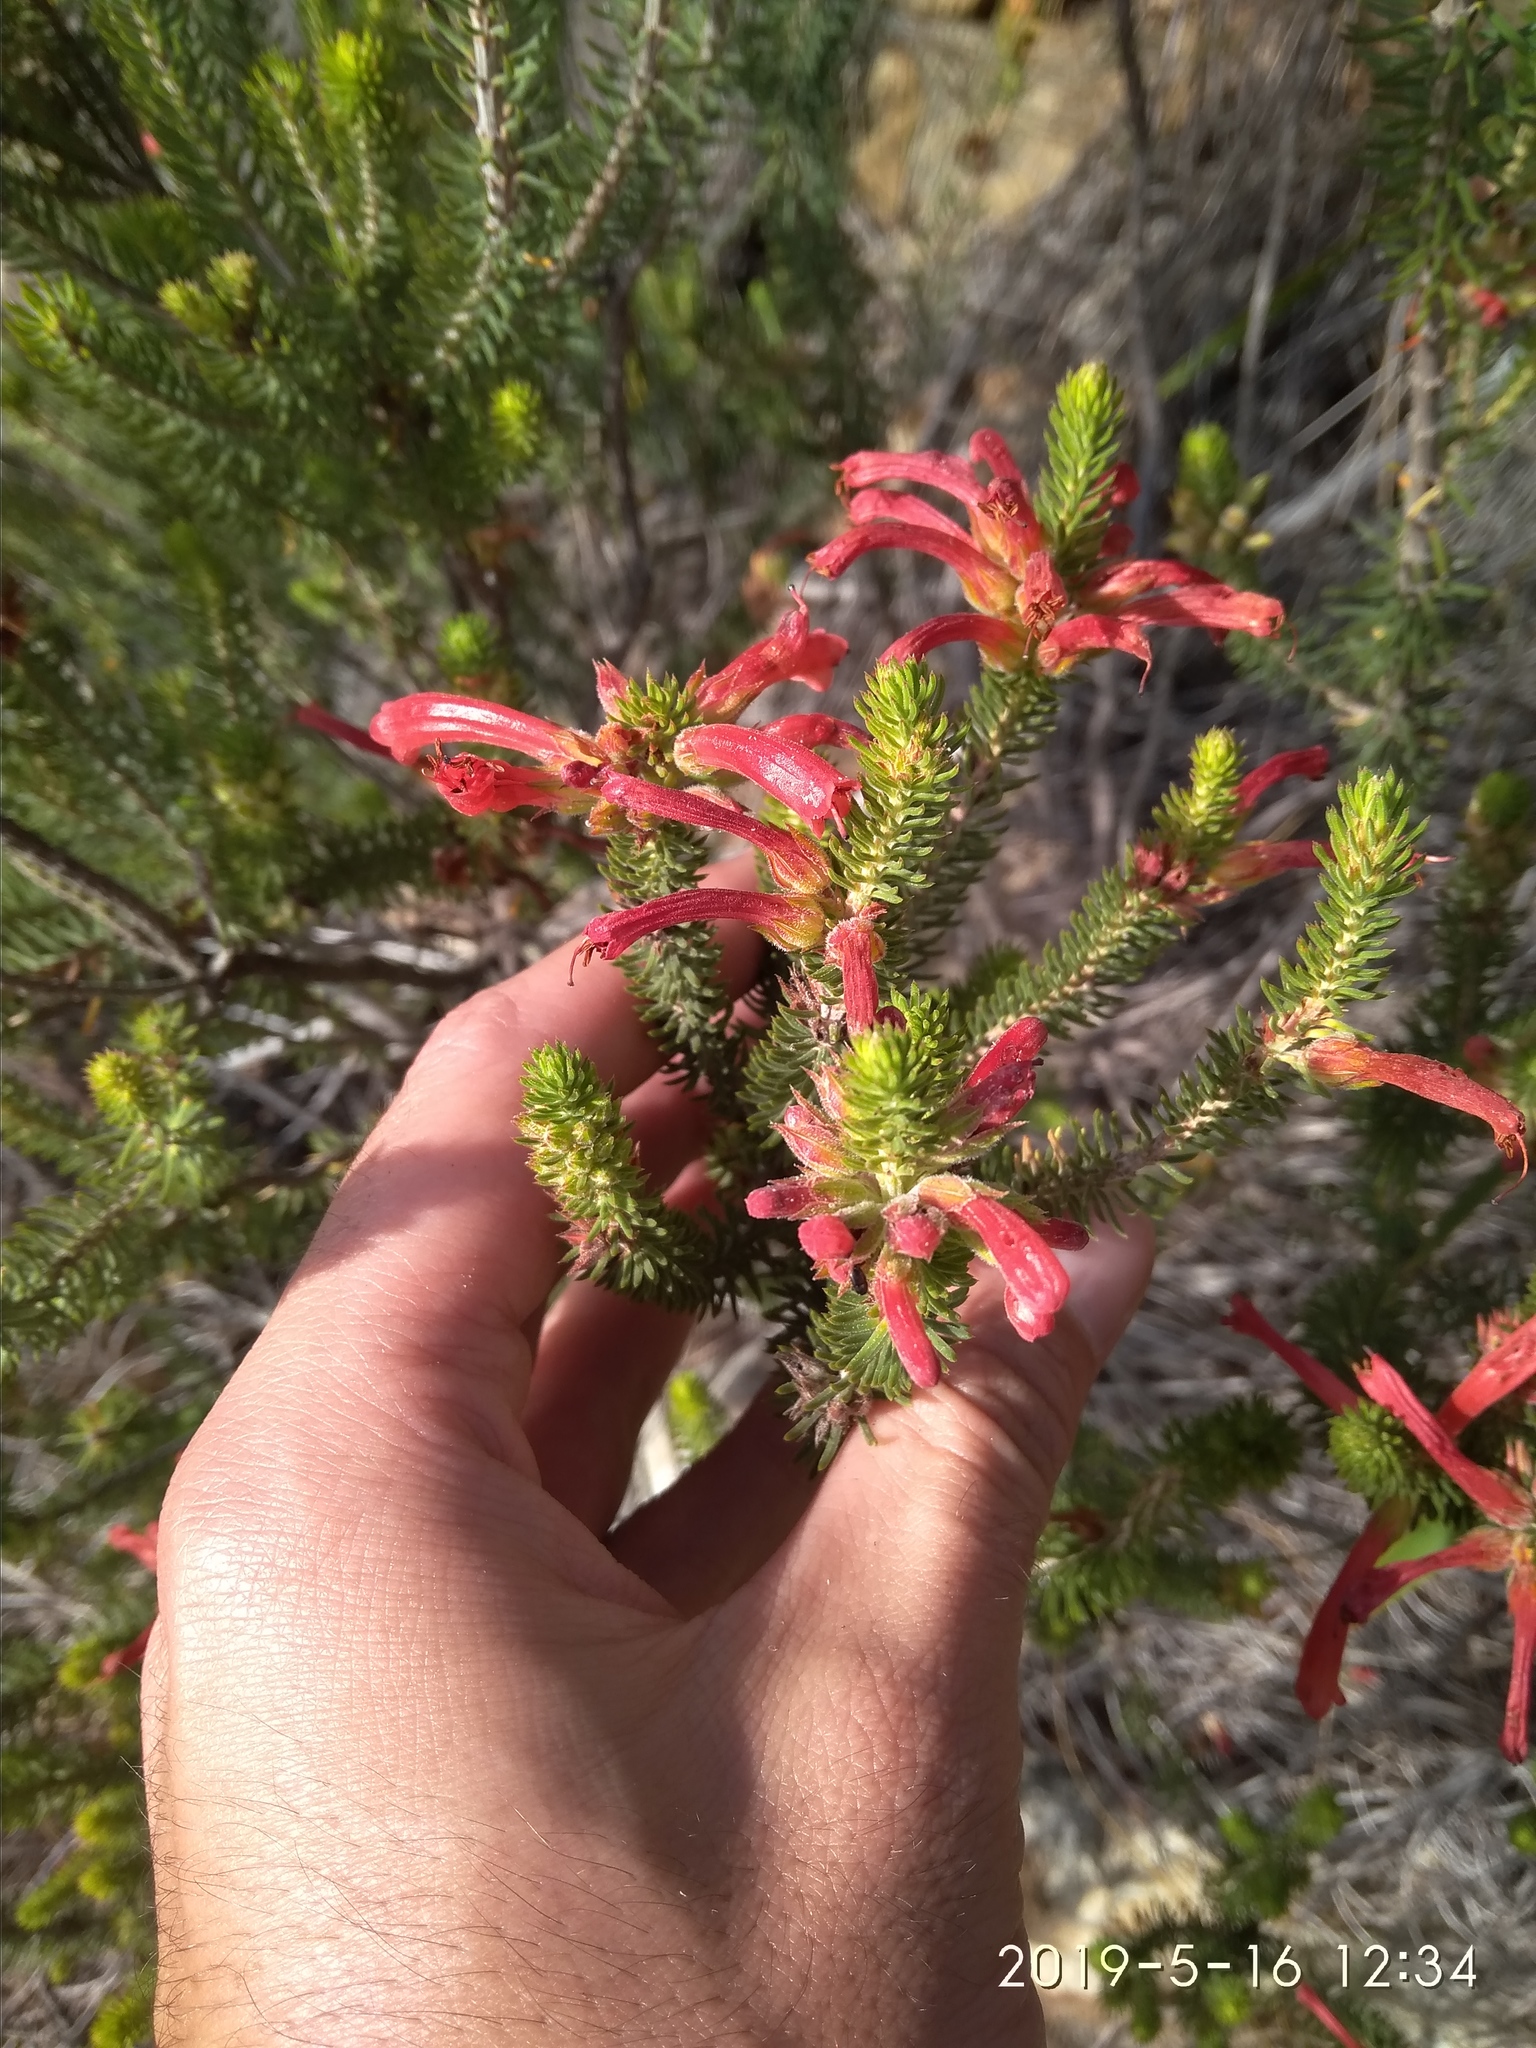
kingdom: Plantae
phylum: Tracheophyta
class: Magnoliopsida
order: Ericales
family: Ericaceae
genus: Erica
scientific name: Erica abietina
